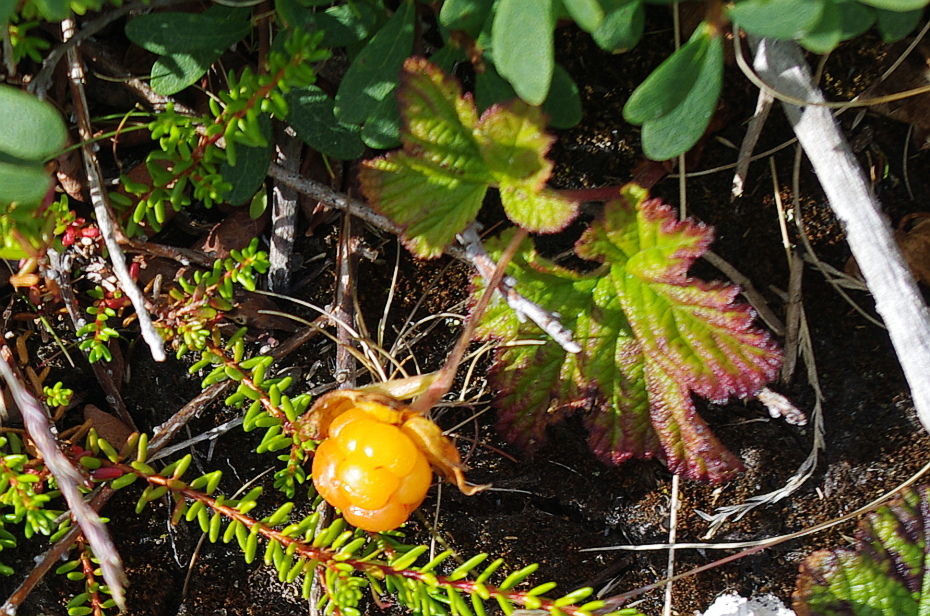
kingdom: Plantae
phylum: Tracheophyta
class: Magnoliopsida
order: Rosales
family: Rosaceae
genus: Rubus
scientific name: Rubus chamaemorus
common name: Cloudberry
